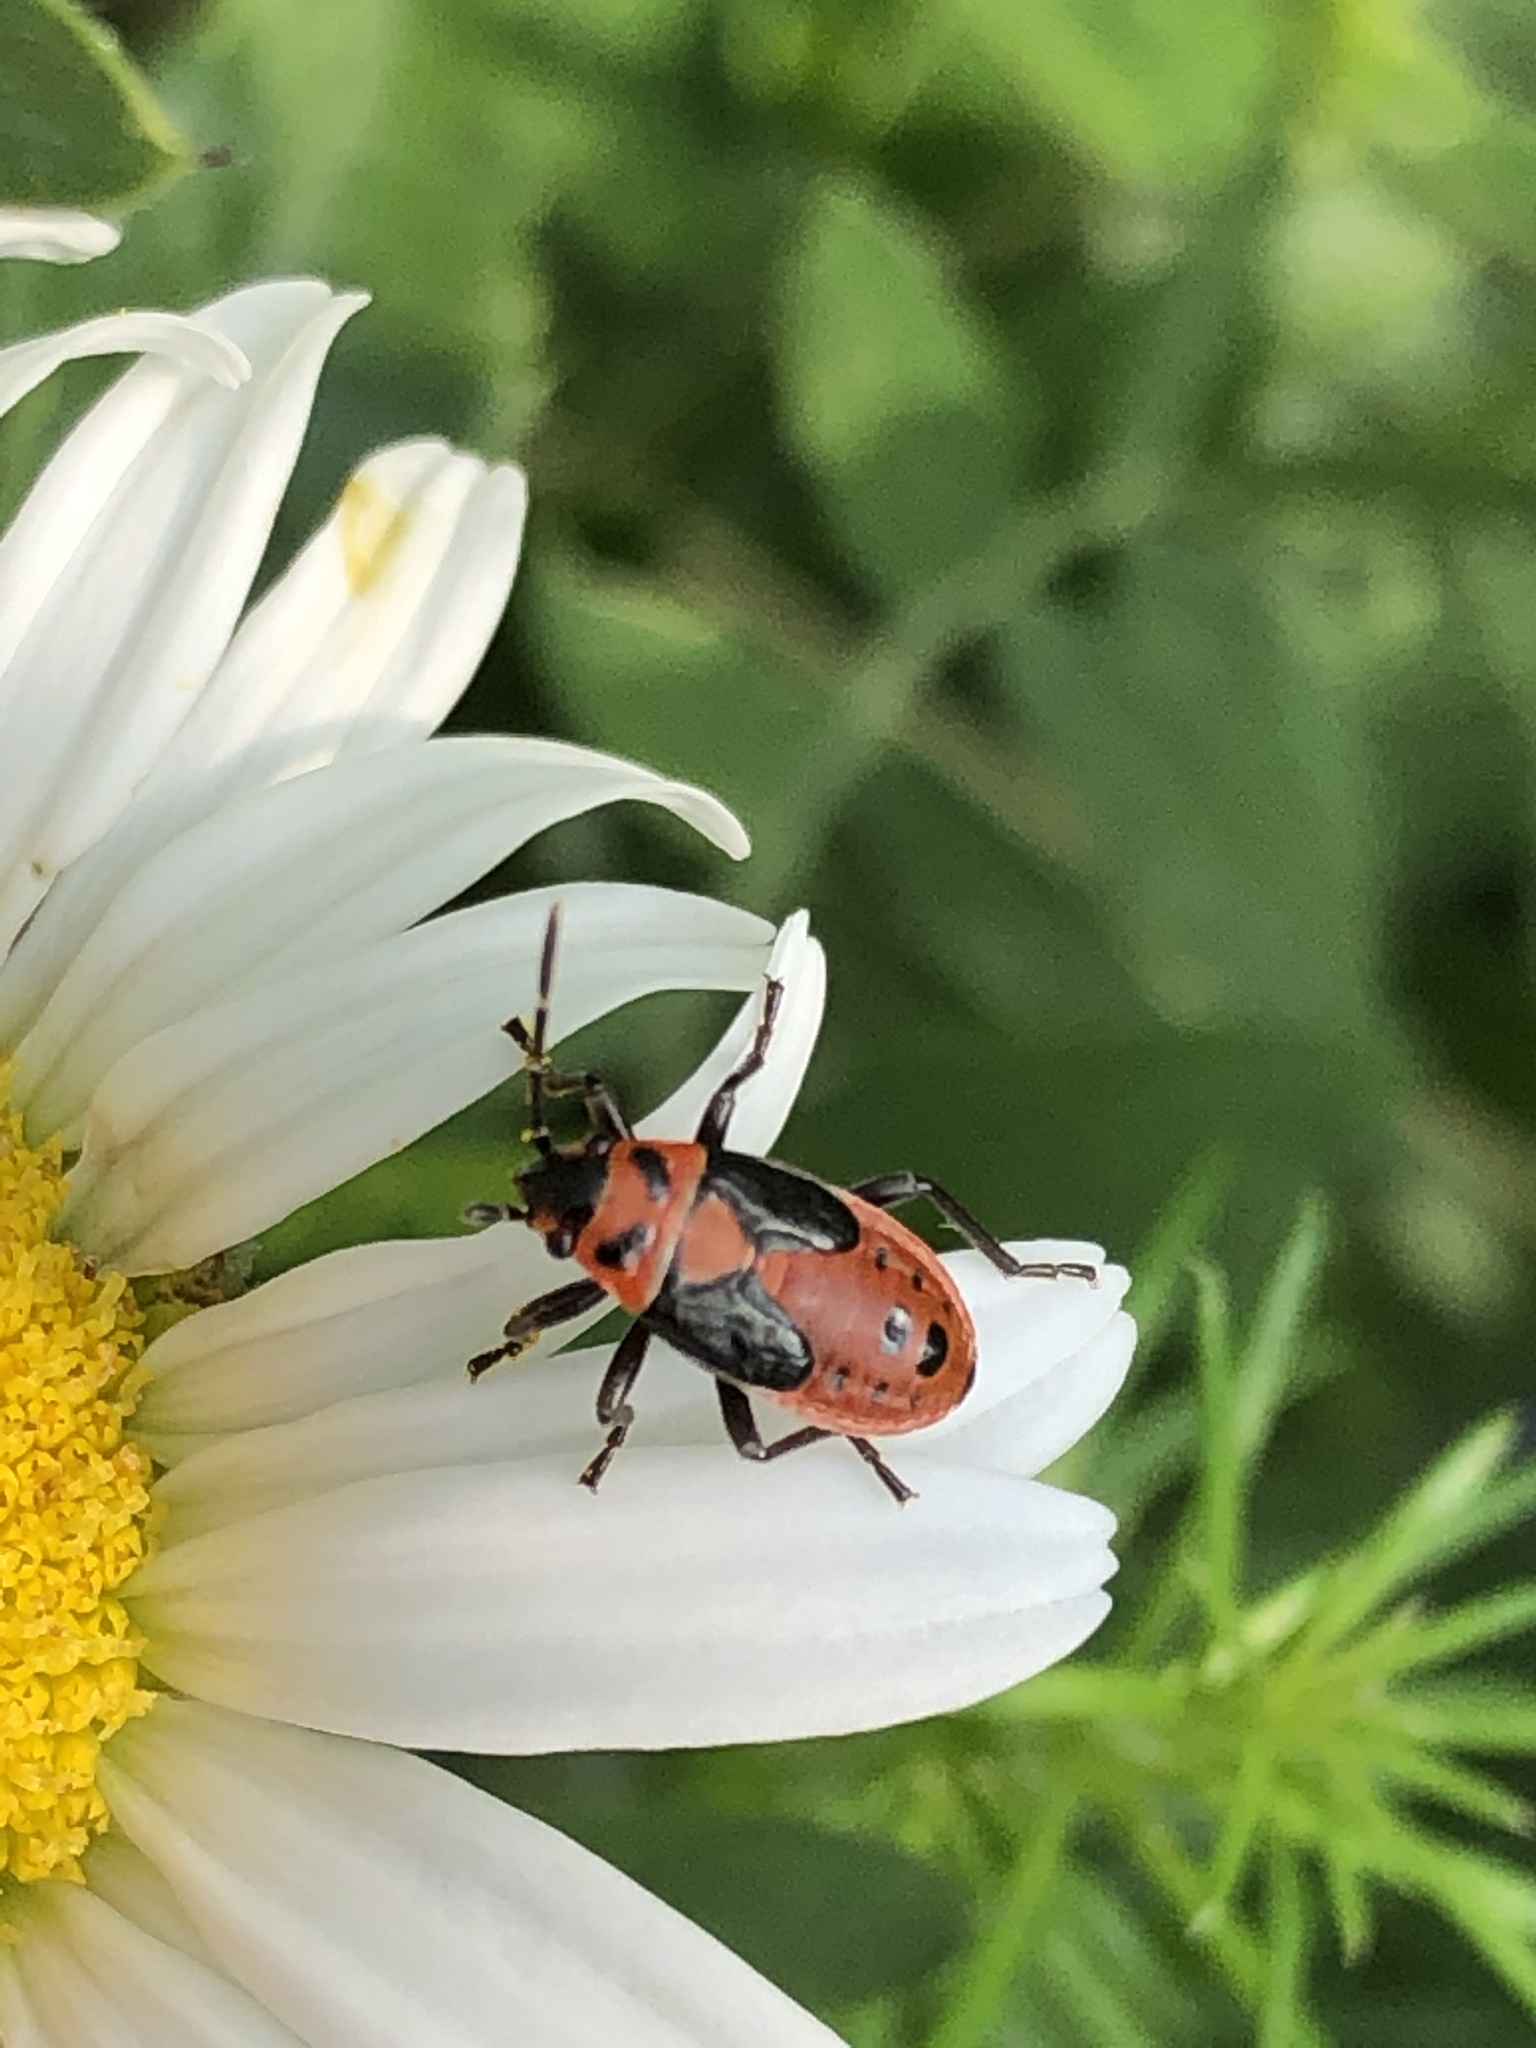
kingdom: Animalia
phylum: Arthropoda
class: Insecta
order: Hemiptera
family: Lygaeidae
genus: Lygaeus
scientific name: Lygaeus kalmii
